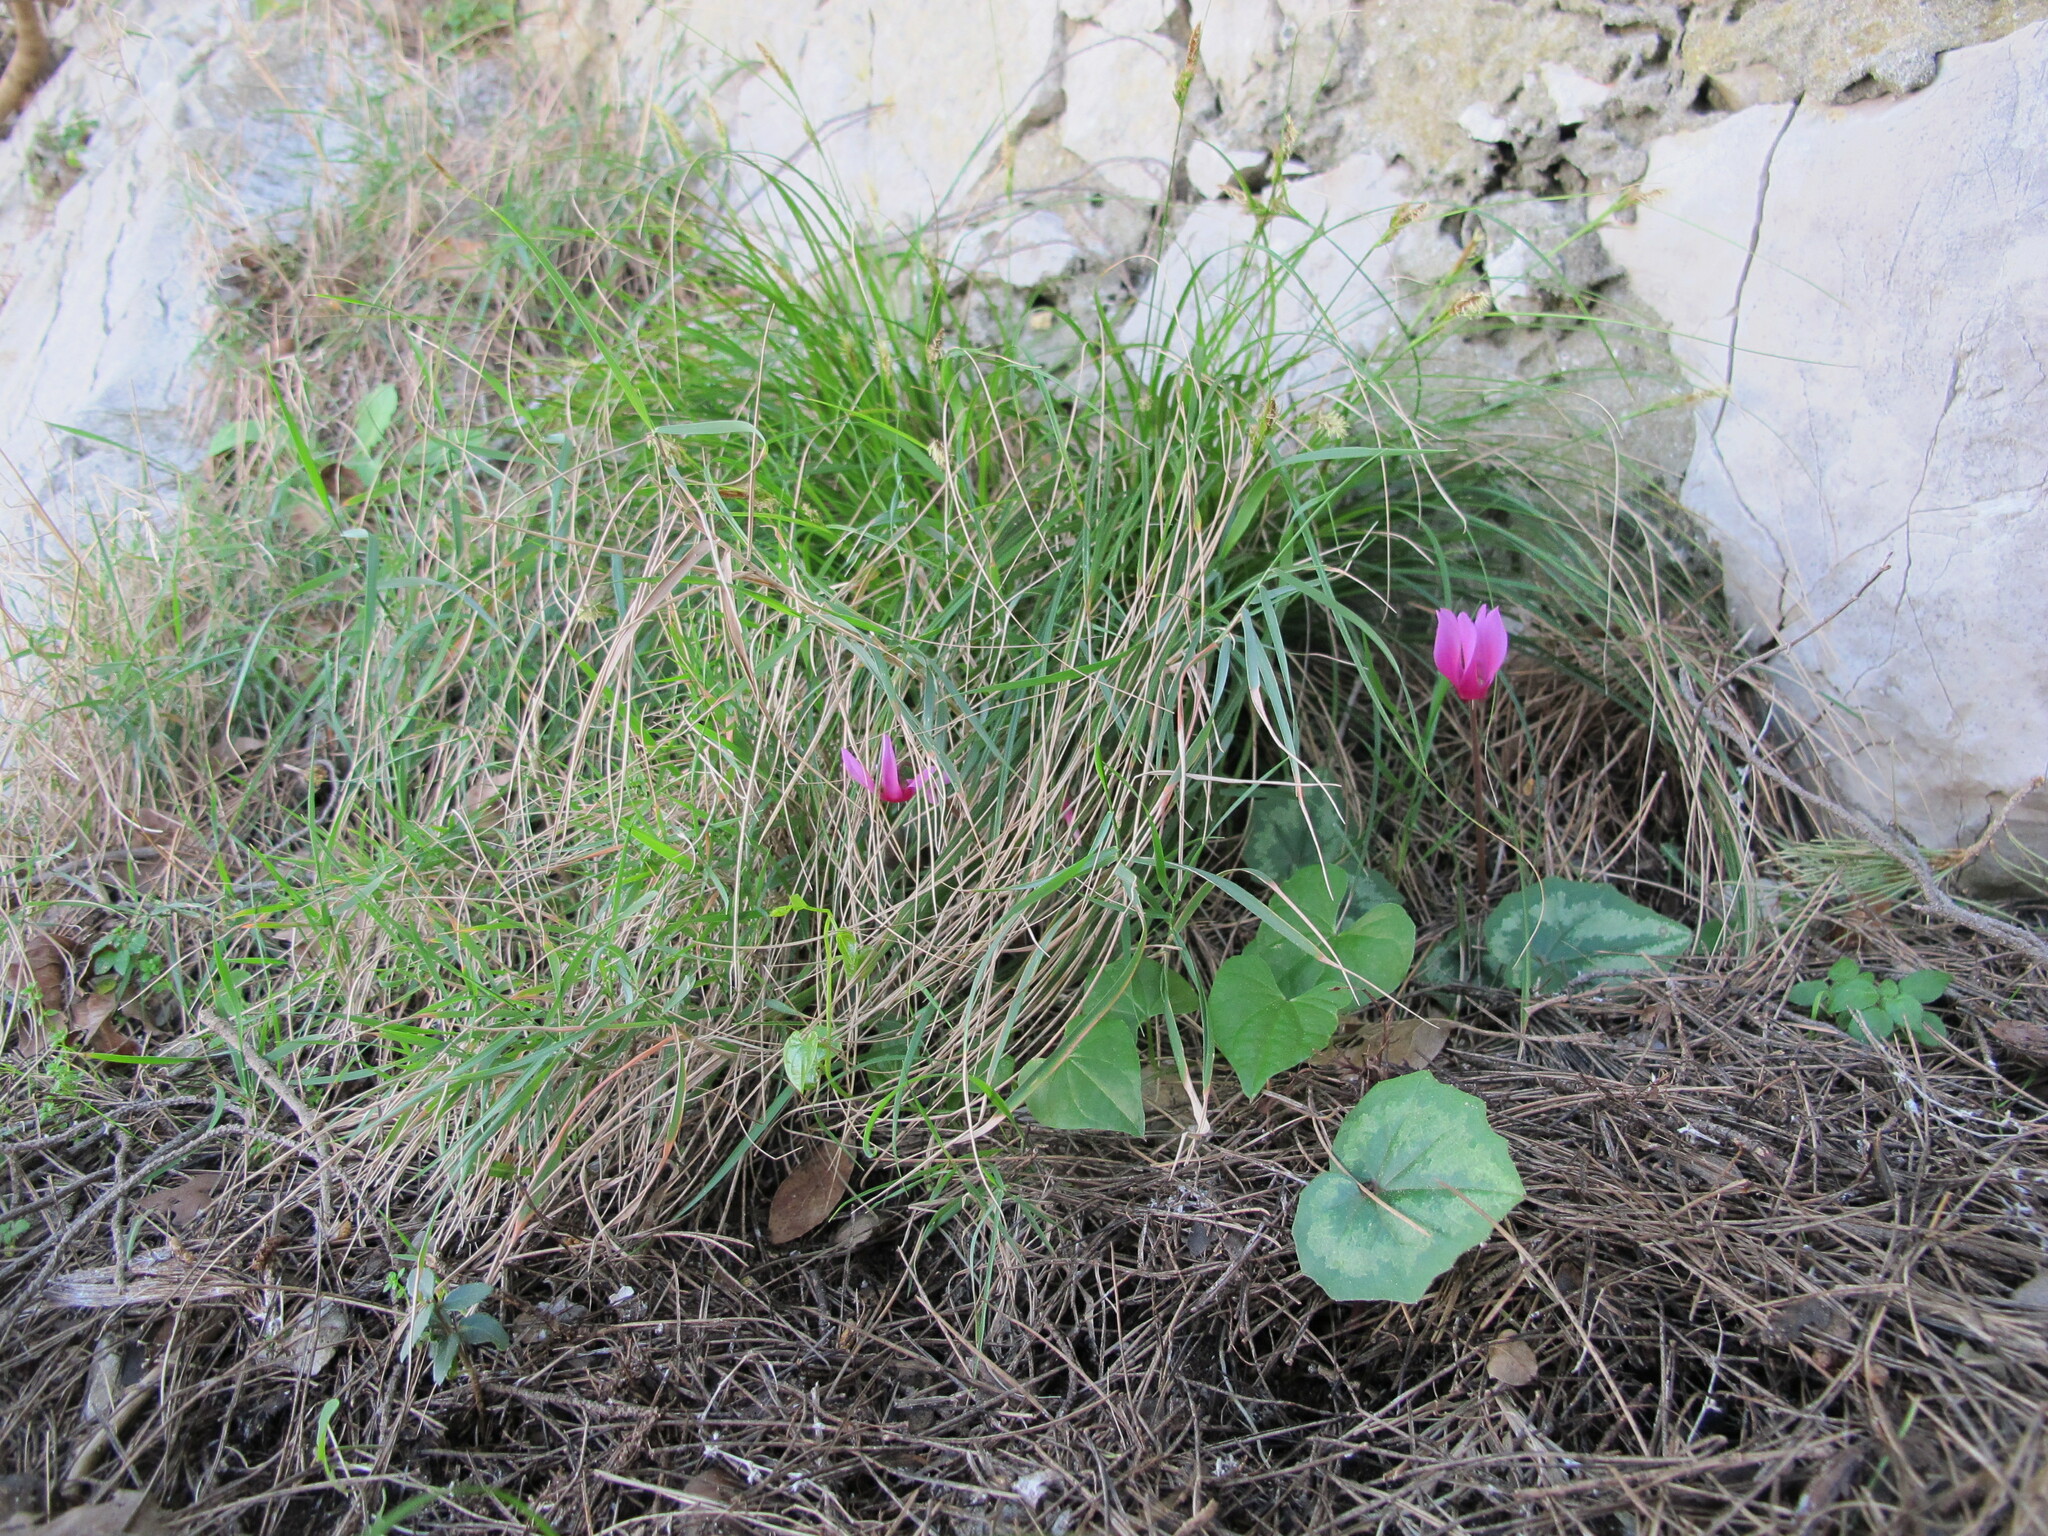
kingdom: Plantae
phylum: Tracheophyta
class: Magnoliopsida
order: Ericales
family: Primulaceae
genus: Cyclamen
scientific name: Cyclamen repandum
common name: Spring sowbread
